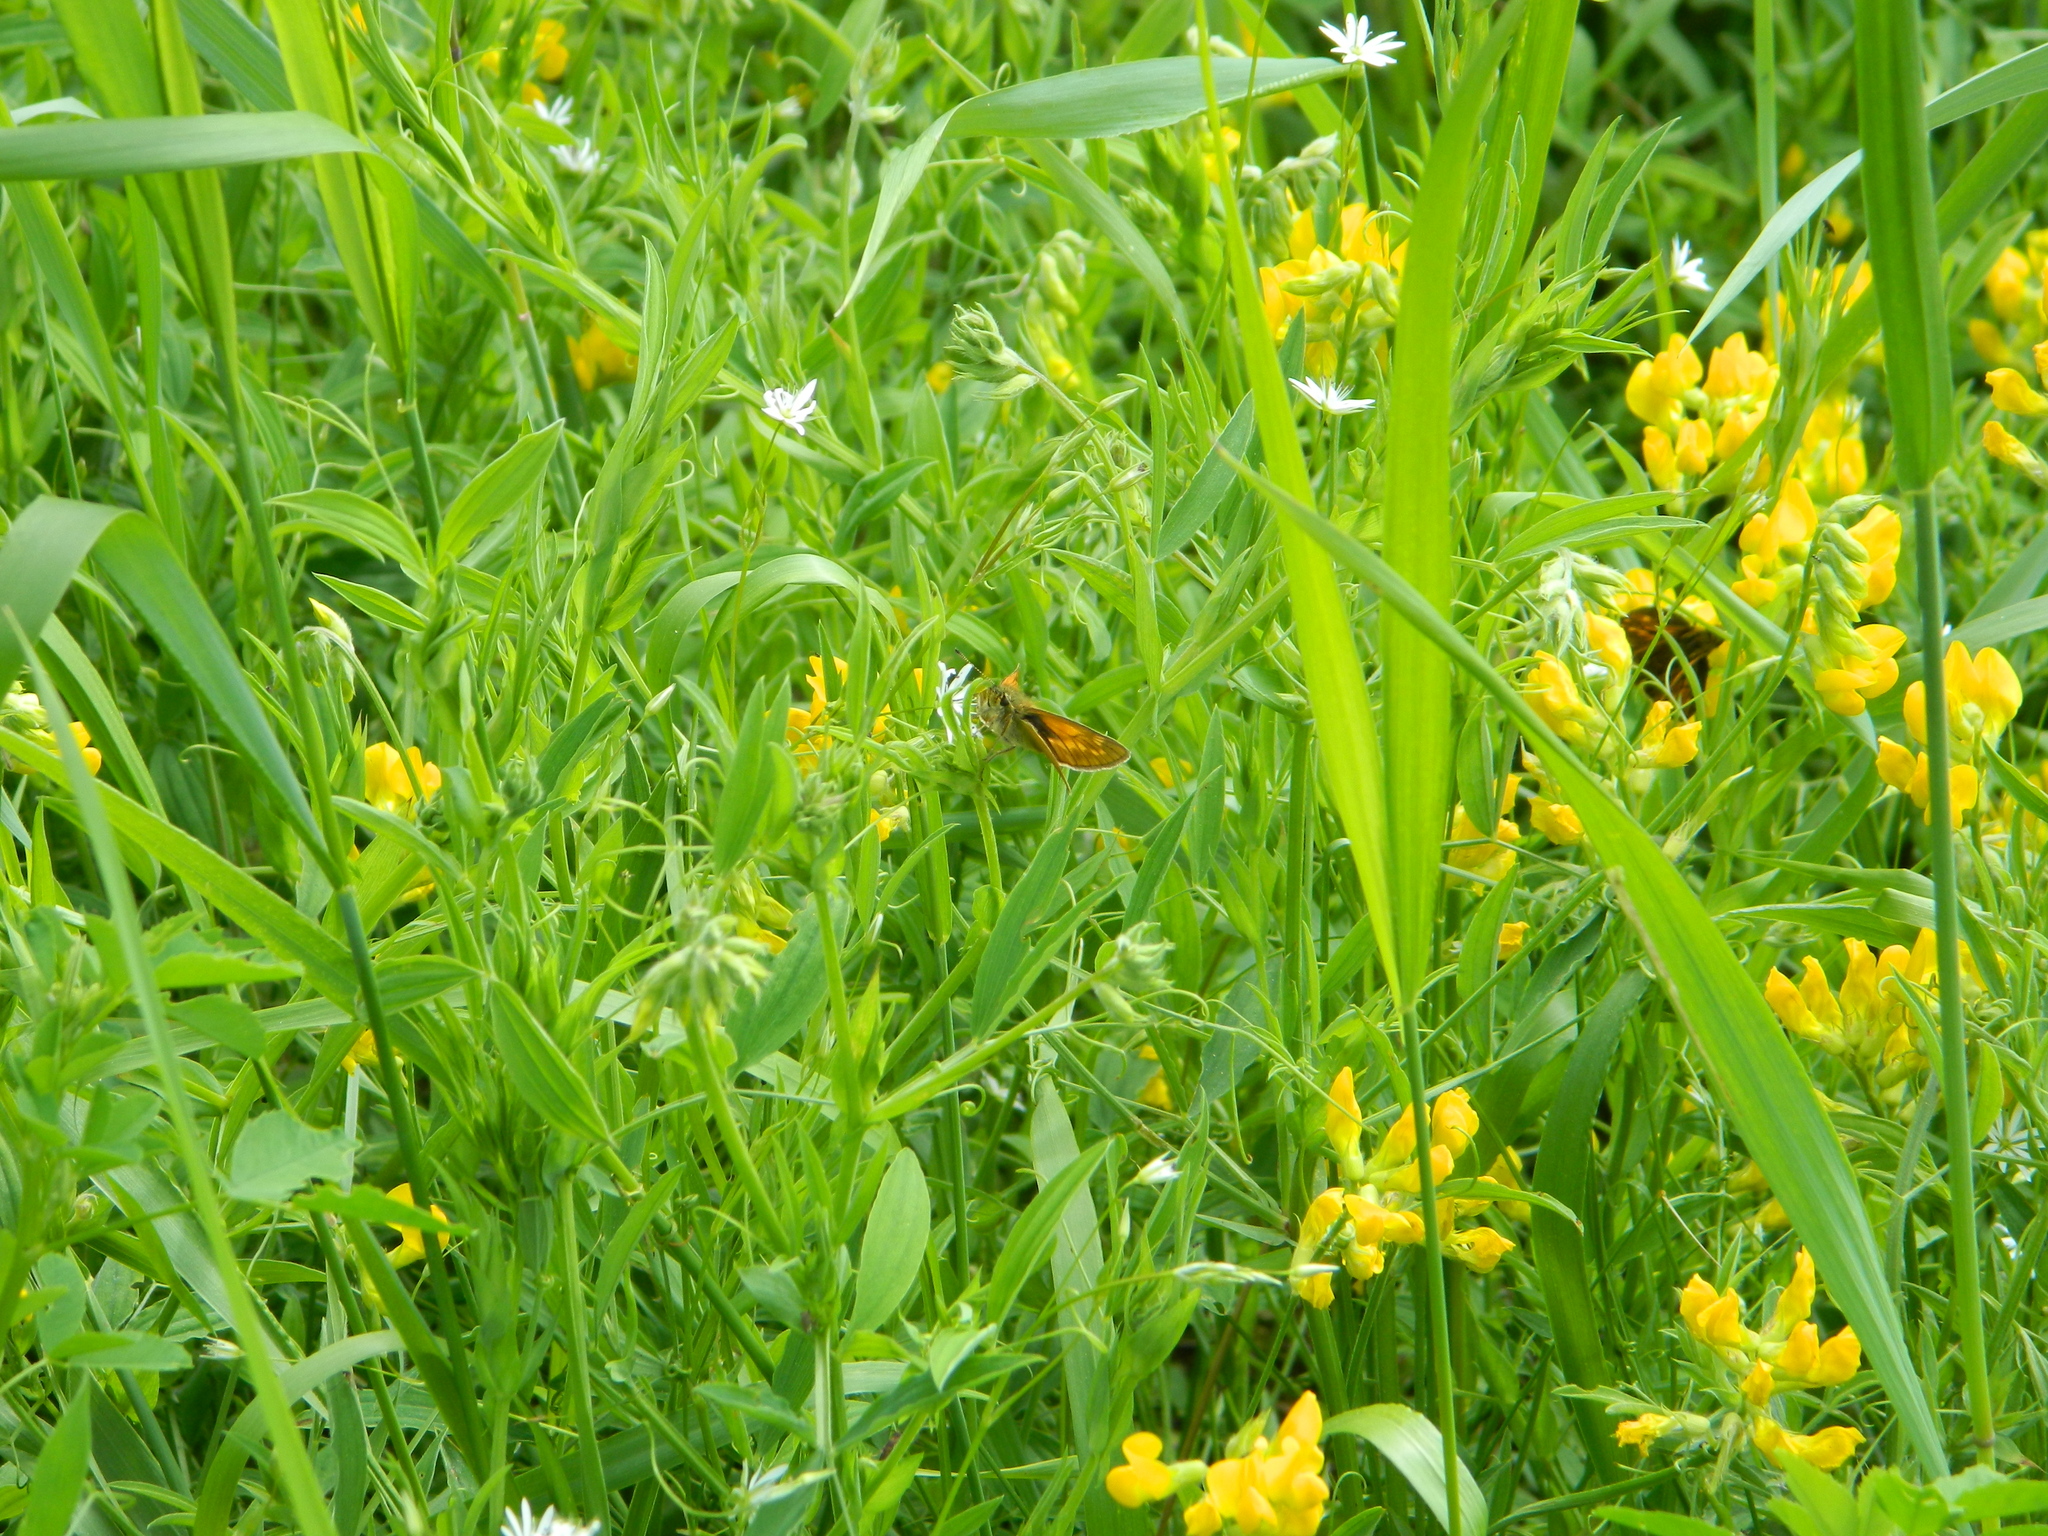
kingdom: Plantae
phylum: Tracheophyta
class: Magnoliopsida
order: Fabales
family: Fabaceae
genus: Lathyrus
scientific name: Lathyrus pratensis
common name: Meadow vetchling
